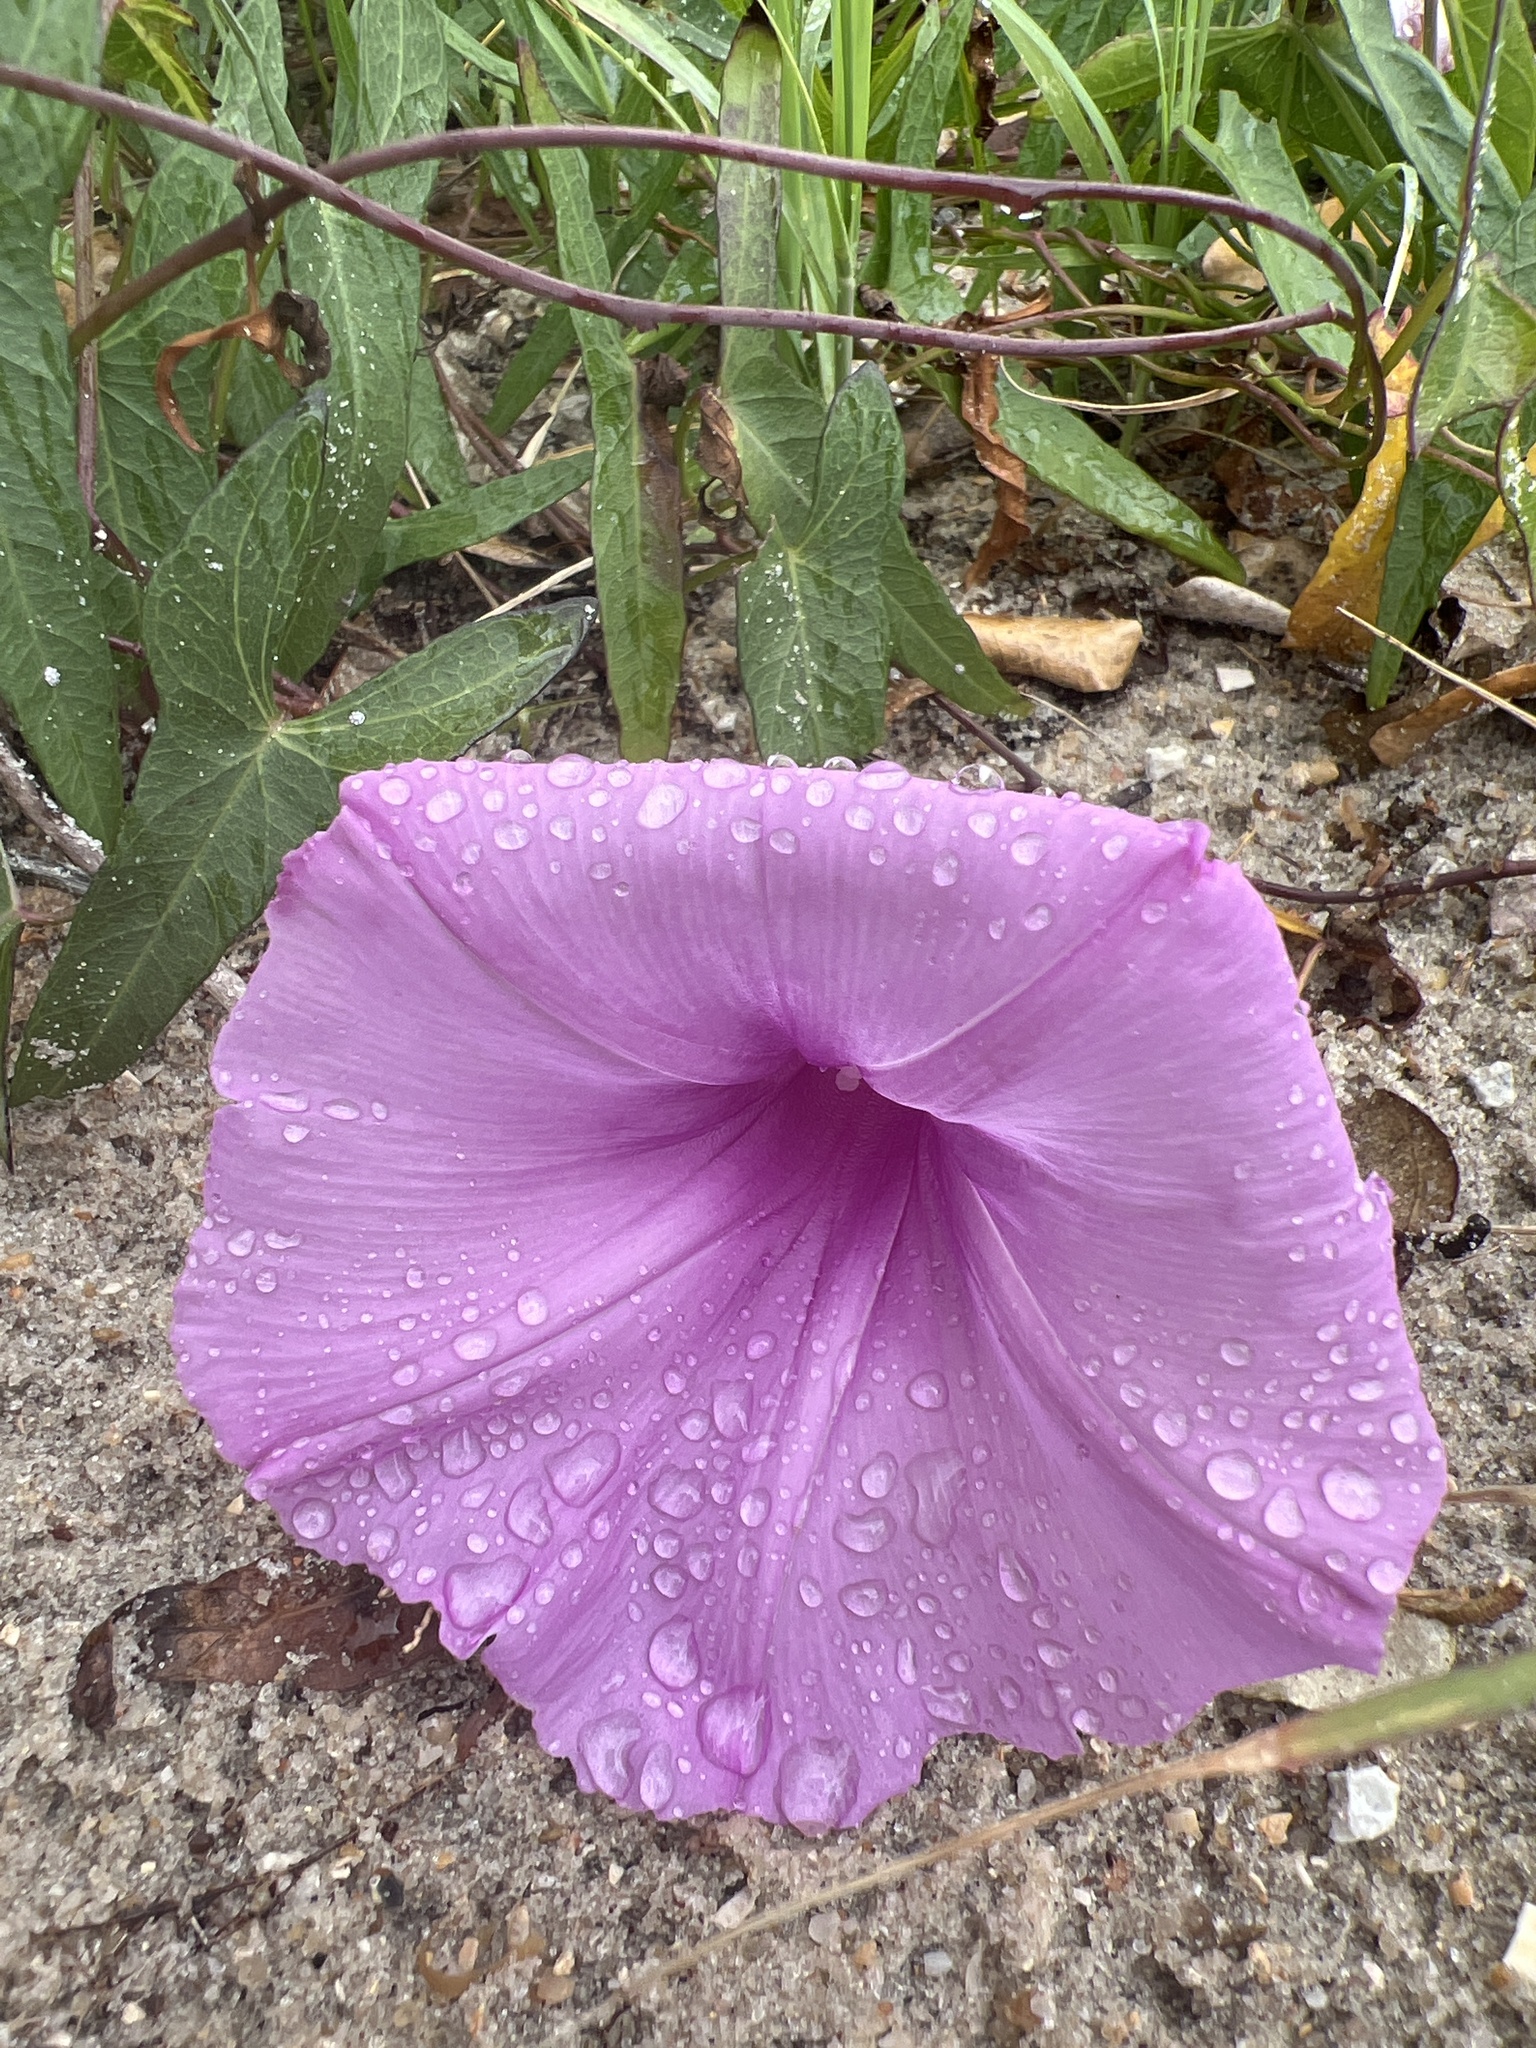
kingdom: Plantae
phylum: Tracheophyta
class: Magnoliopsida
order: Solanales
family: Convolvulaceae
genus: Ipomoea
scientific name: Ipomoea sagittata
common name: Saltmarsh morning glory
